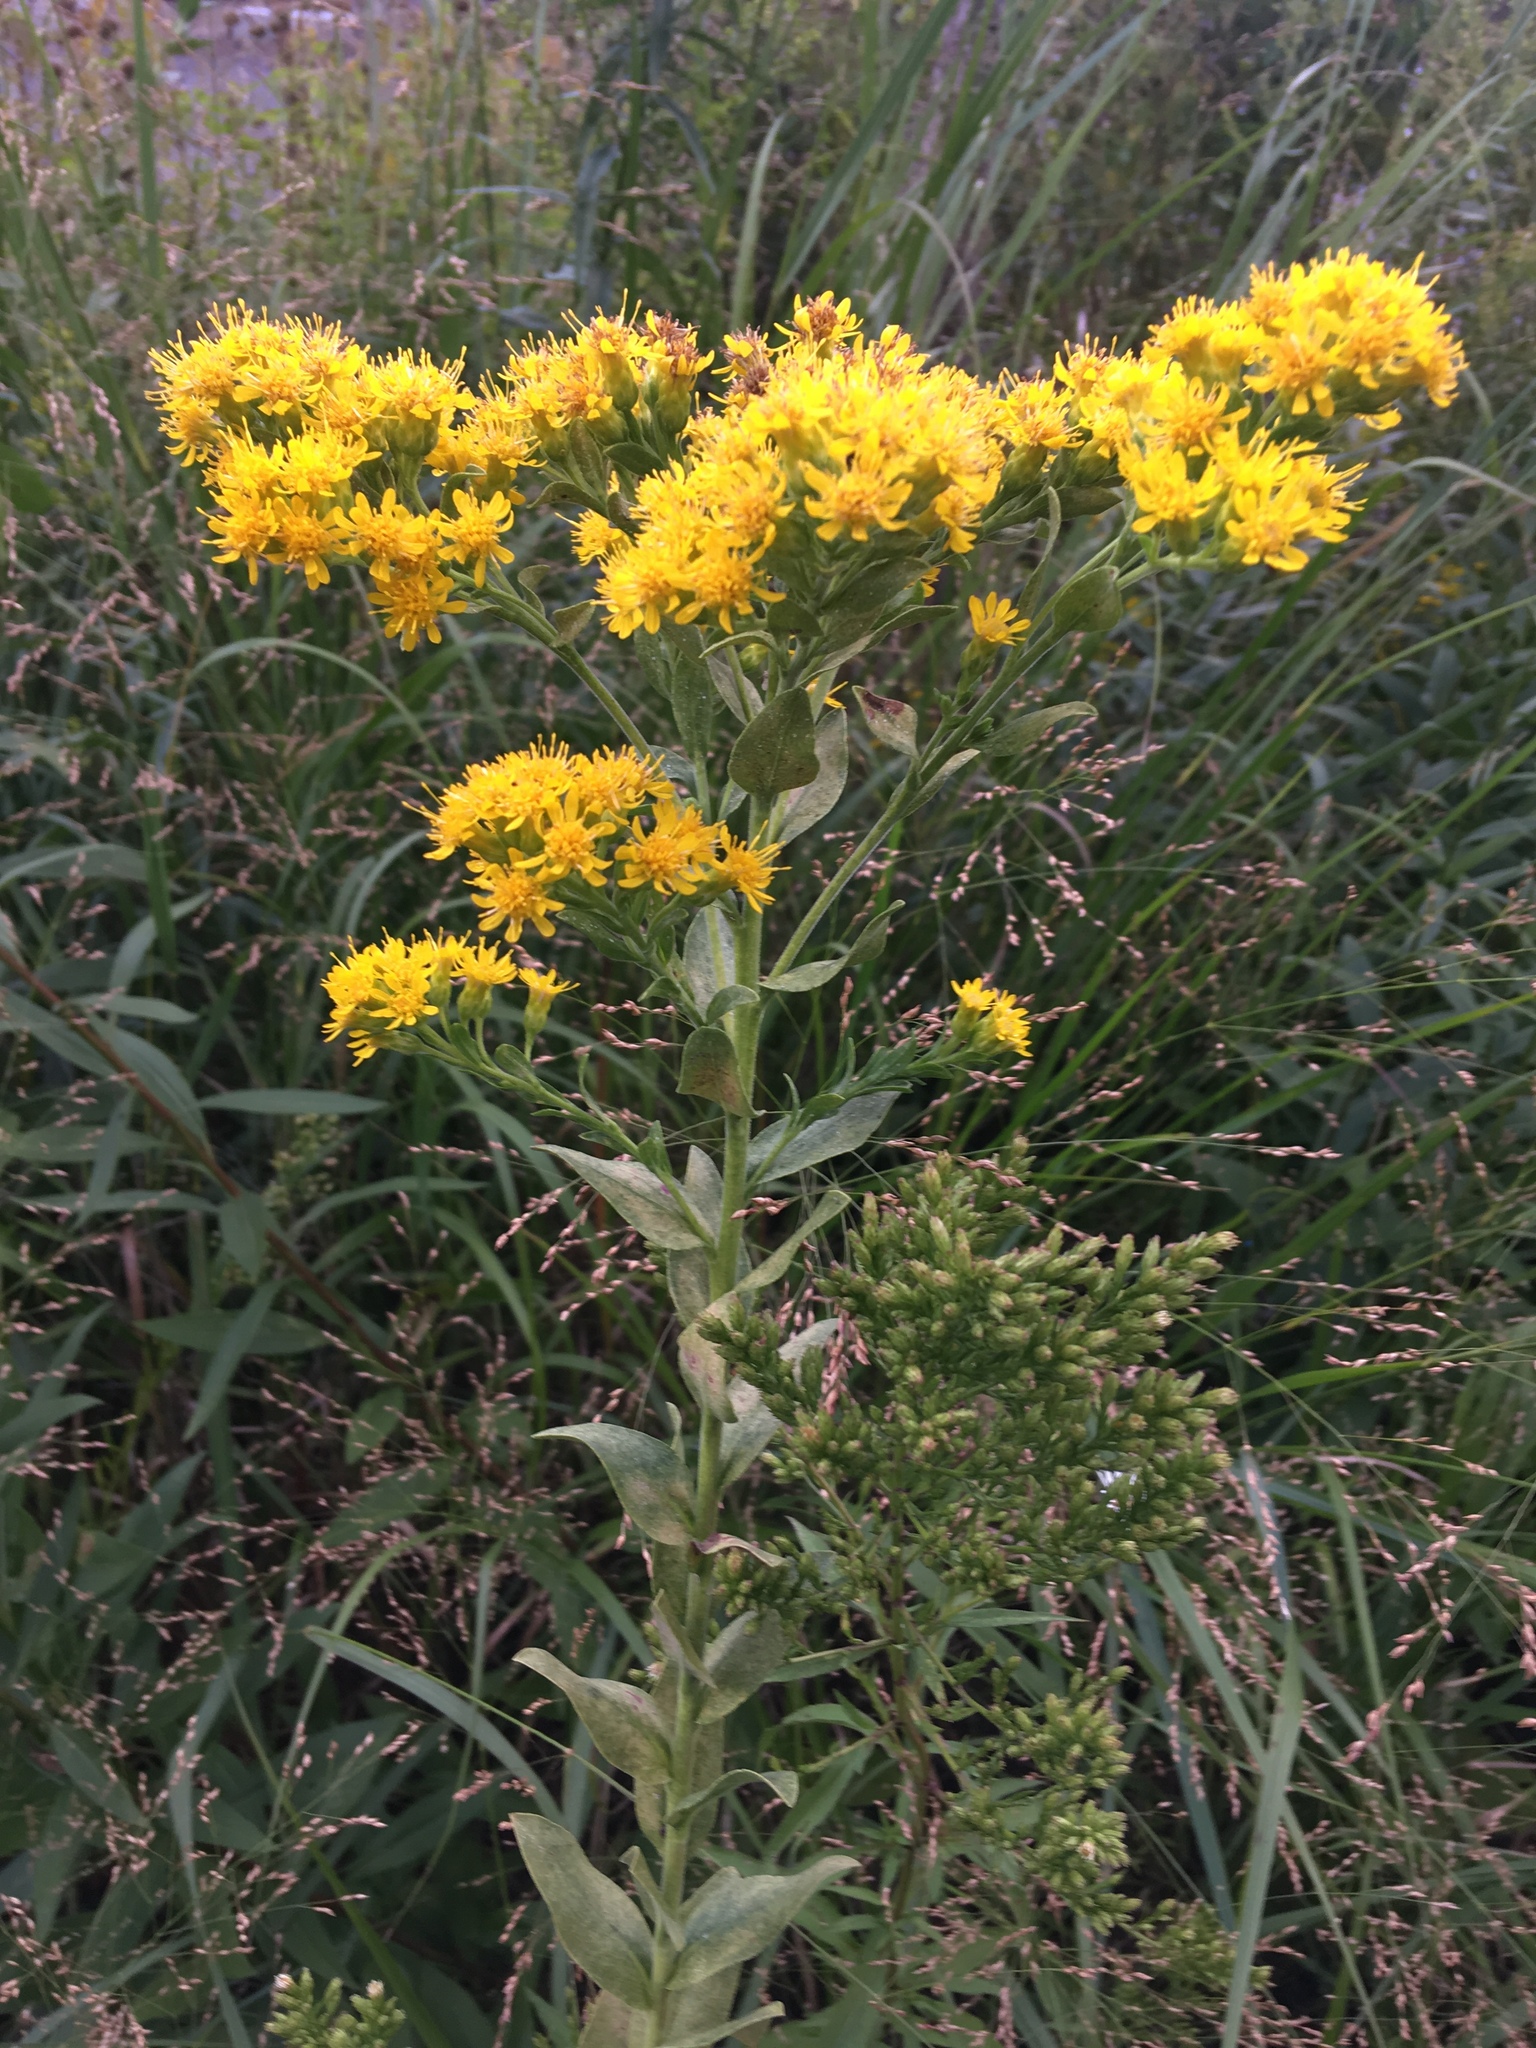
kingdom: Plantae
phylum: Tracheophyta
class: Magnoliopsida
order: Asterales
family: Asteraceae
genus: Solidago
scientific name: Solidago rigida
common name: Rigid goldenrod
